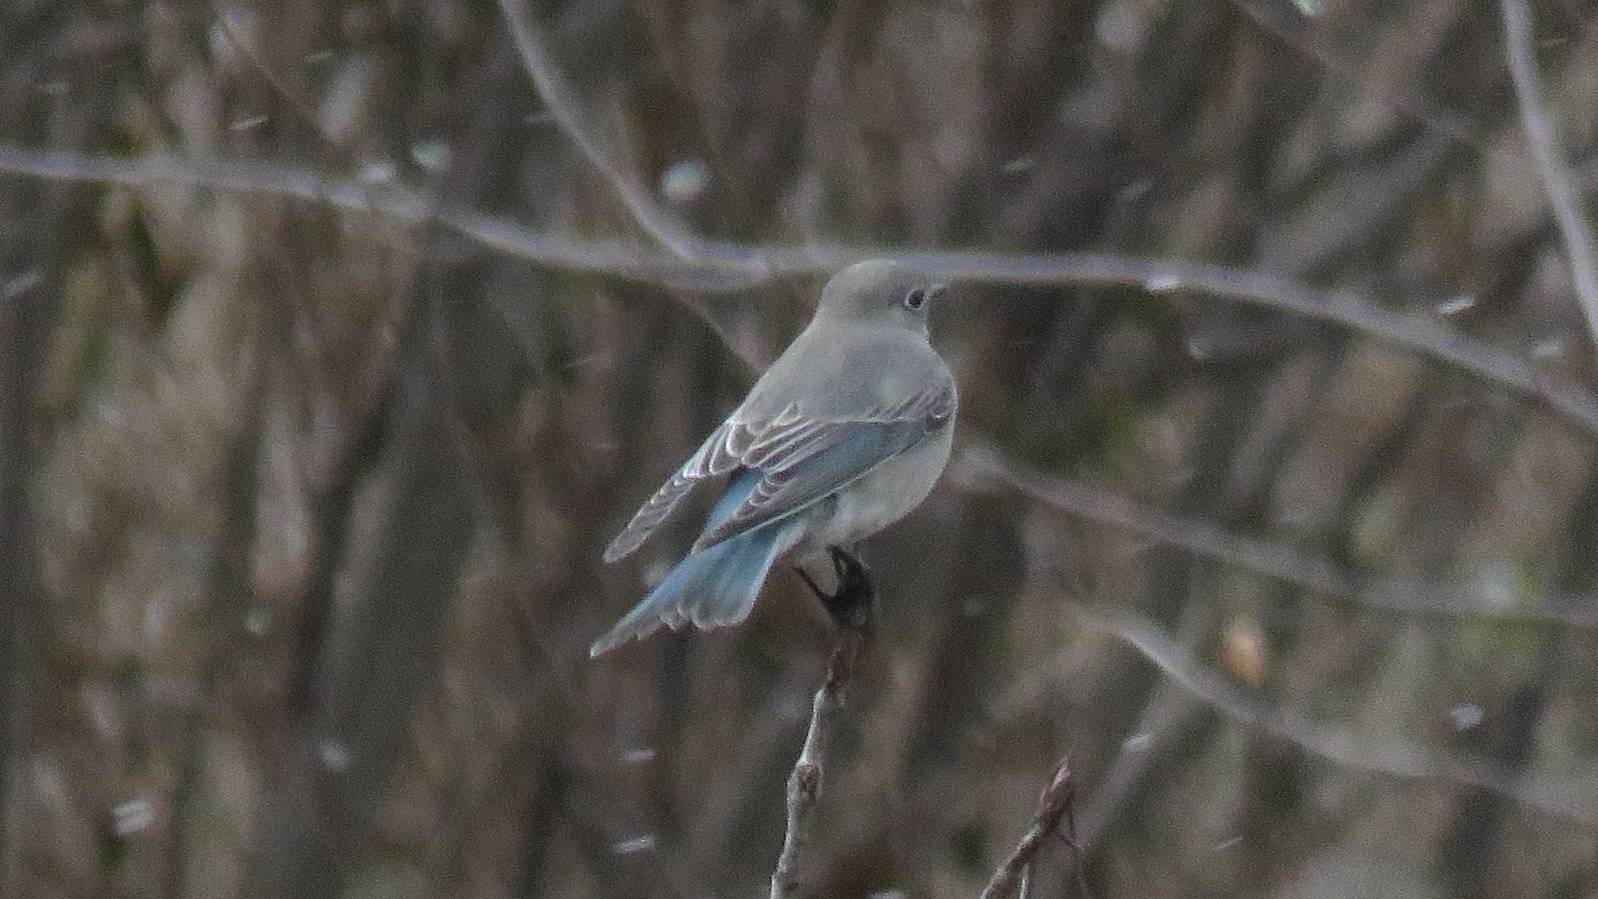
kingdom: Animalia
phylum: Chordata
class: Aves
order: Passeriformes
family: Turdidae
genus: Sialia
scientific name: Sialia currucoides
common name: Mountain bluebird
